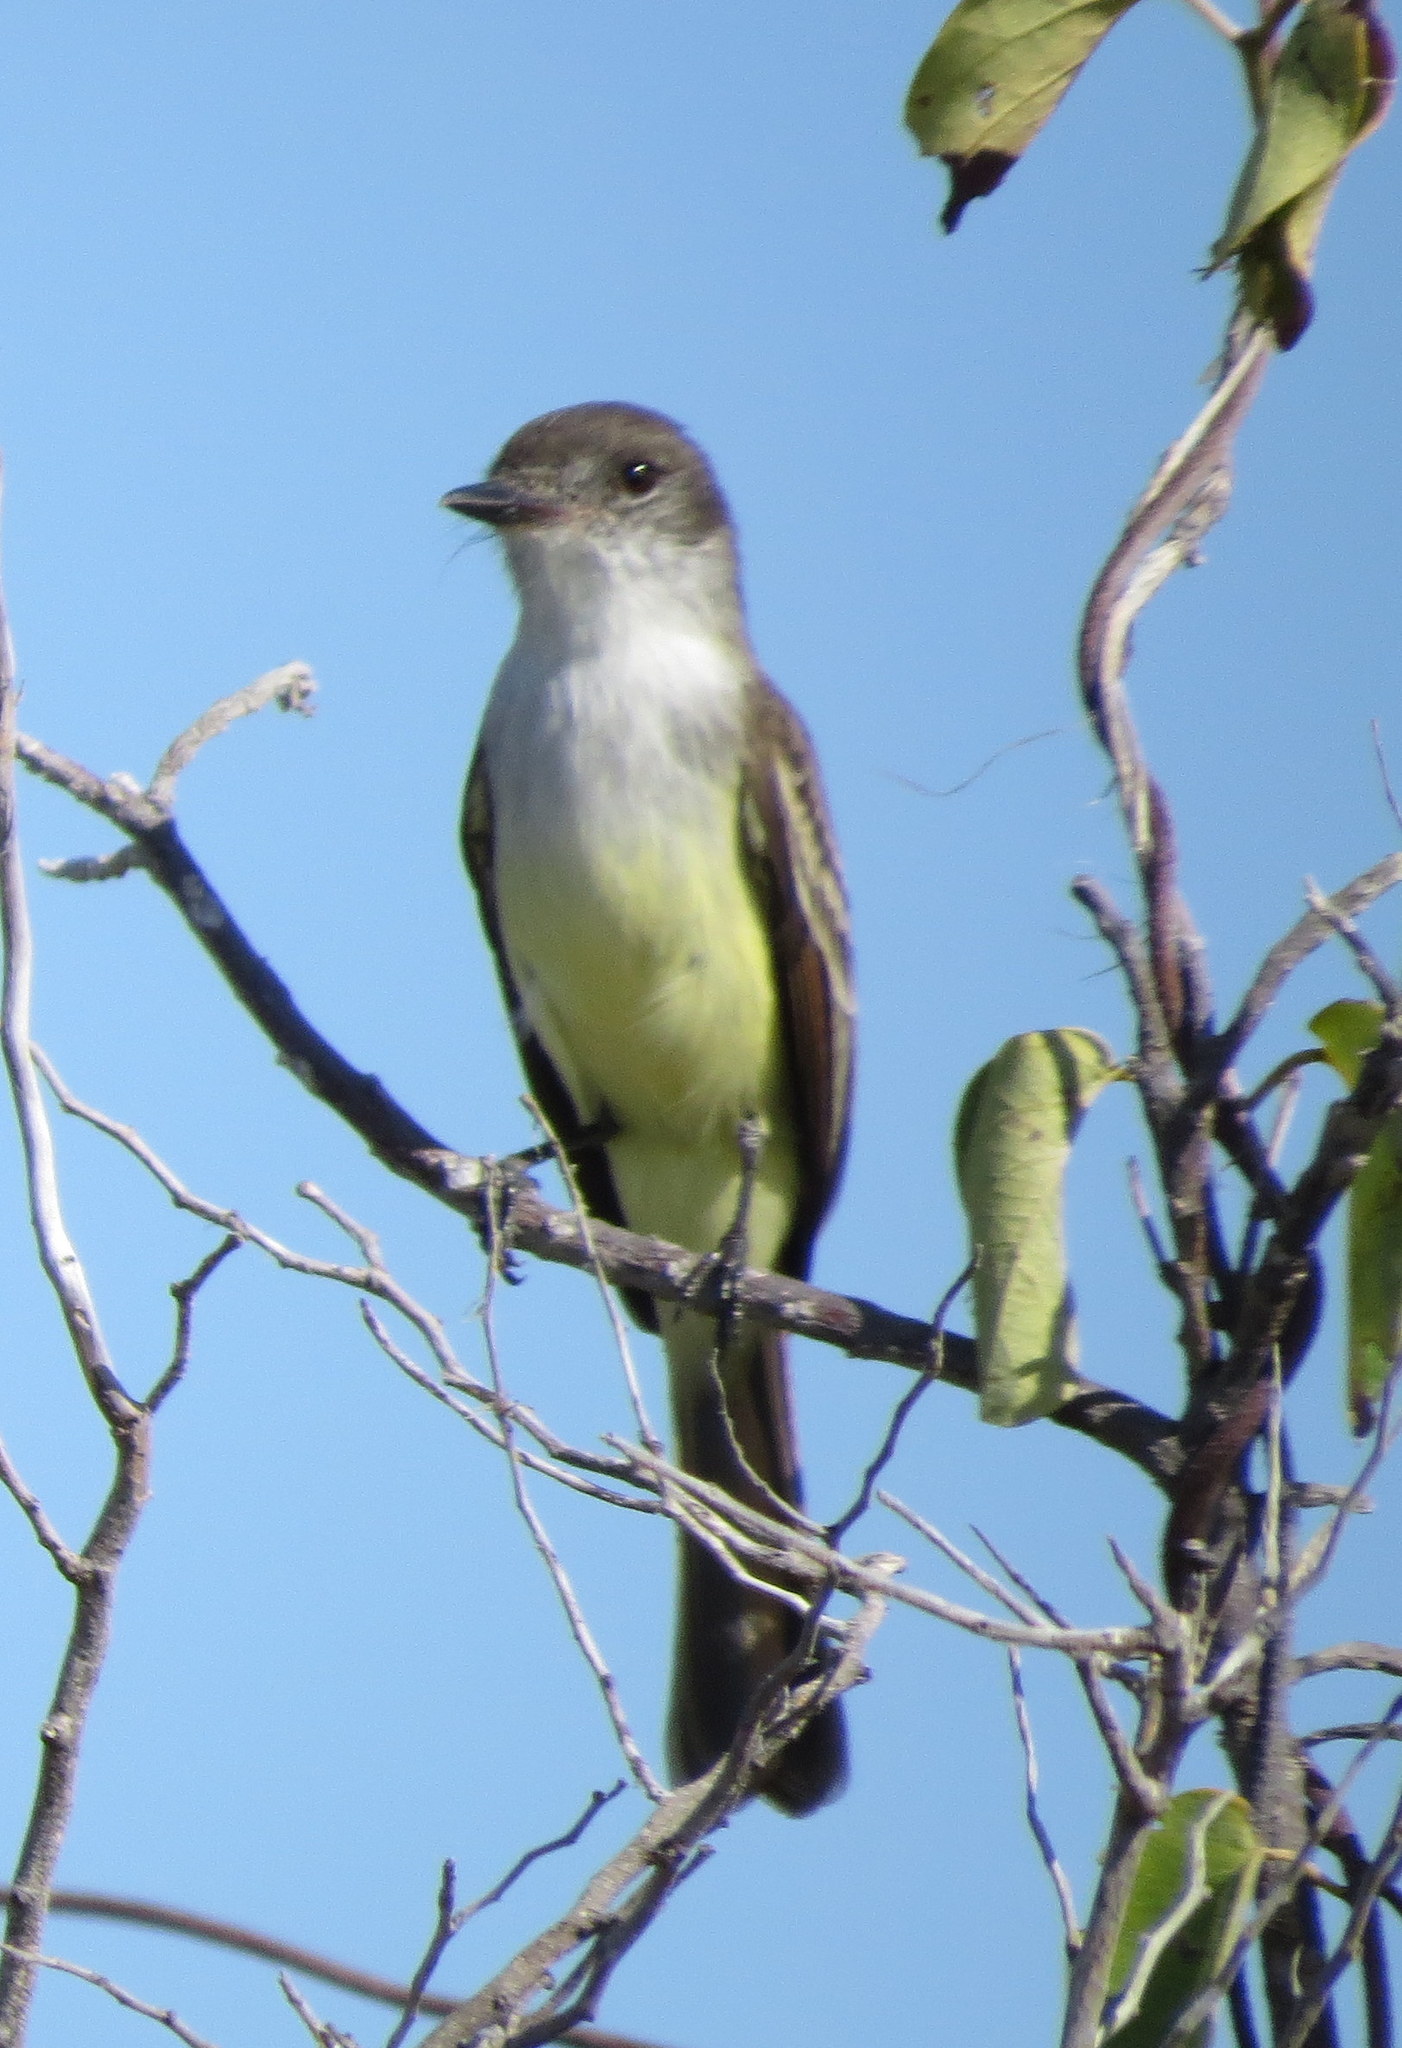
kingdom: Animalia
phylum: Chordata
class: Aves
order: Passeriformes
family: Tyrannidae
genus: Myiarchus
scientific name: Myiarchus stolidus
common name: Stolid flycatcher
